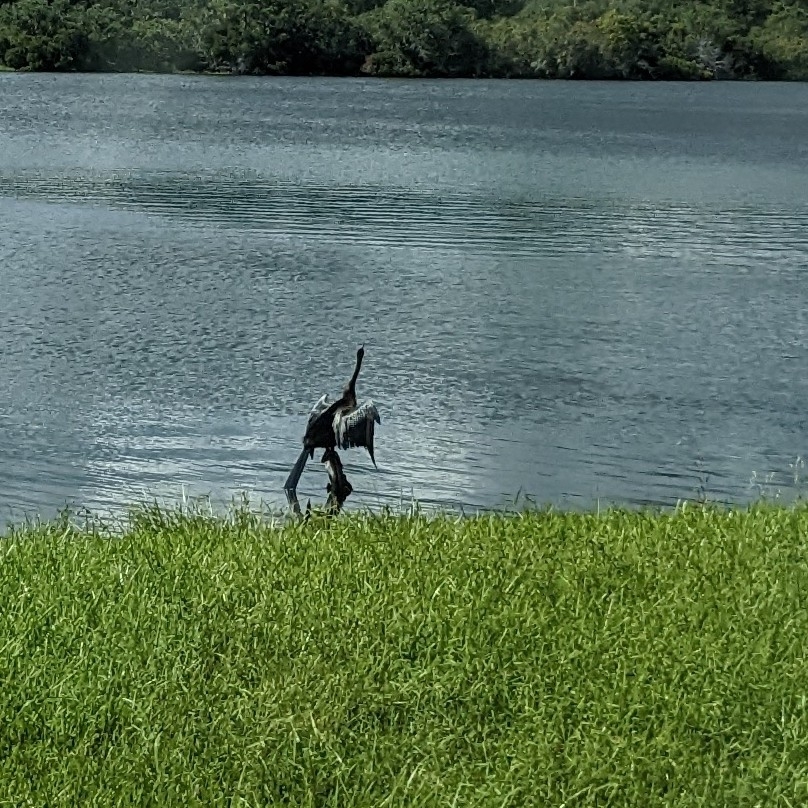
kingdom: Animalia
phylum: Chordata
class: Aves
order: Suliformes
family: Anhingidae
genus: Anhinga
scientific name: Anhinga anhinga
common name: Anhinga
